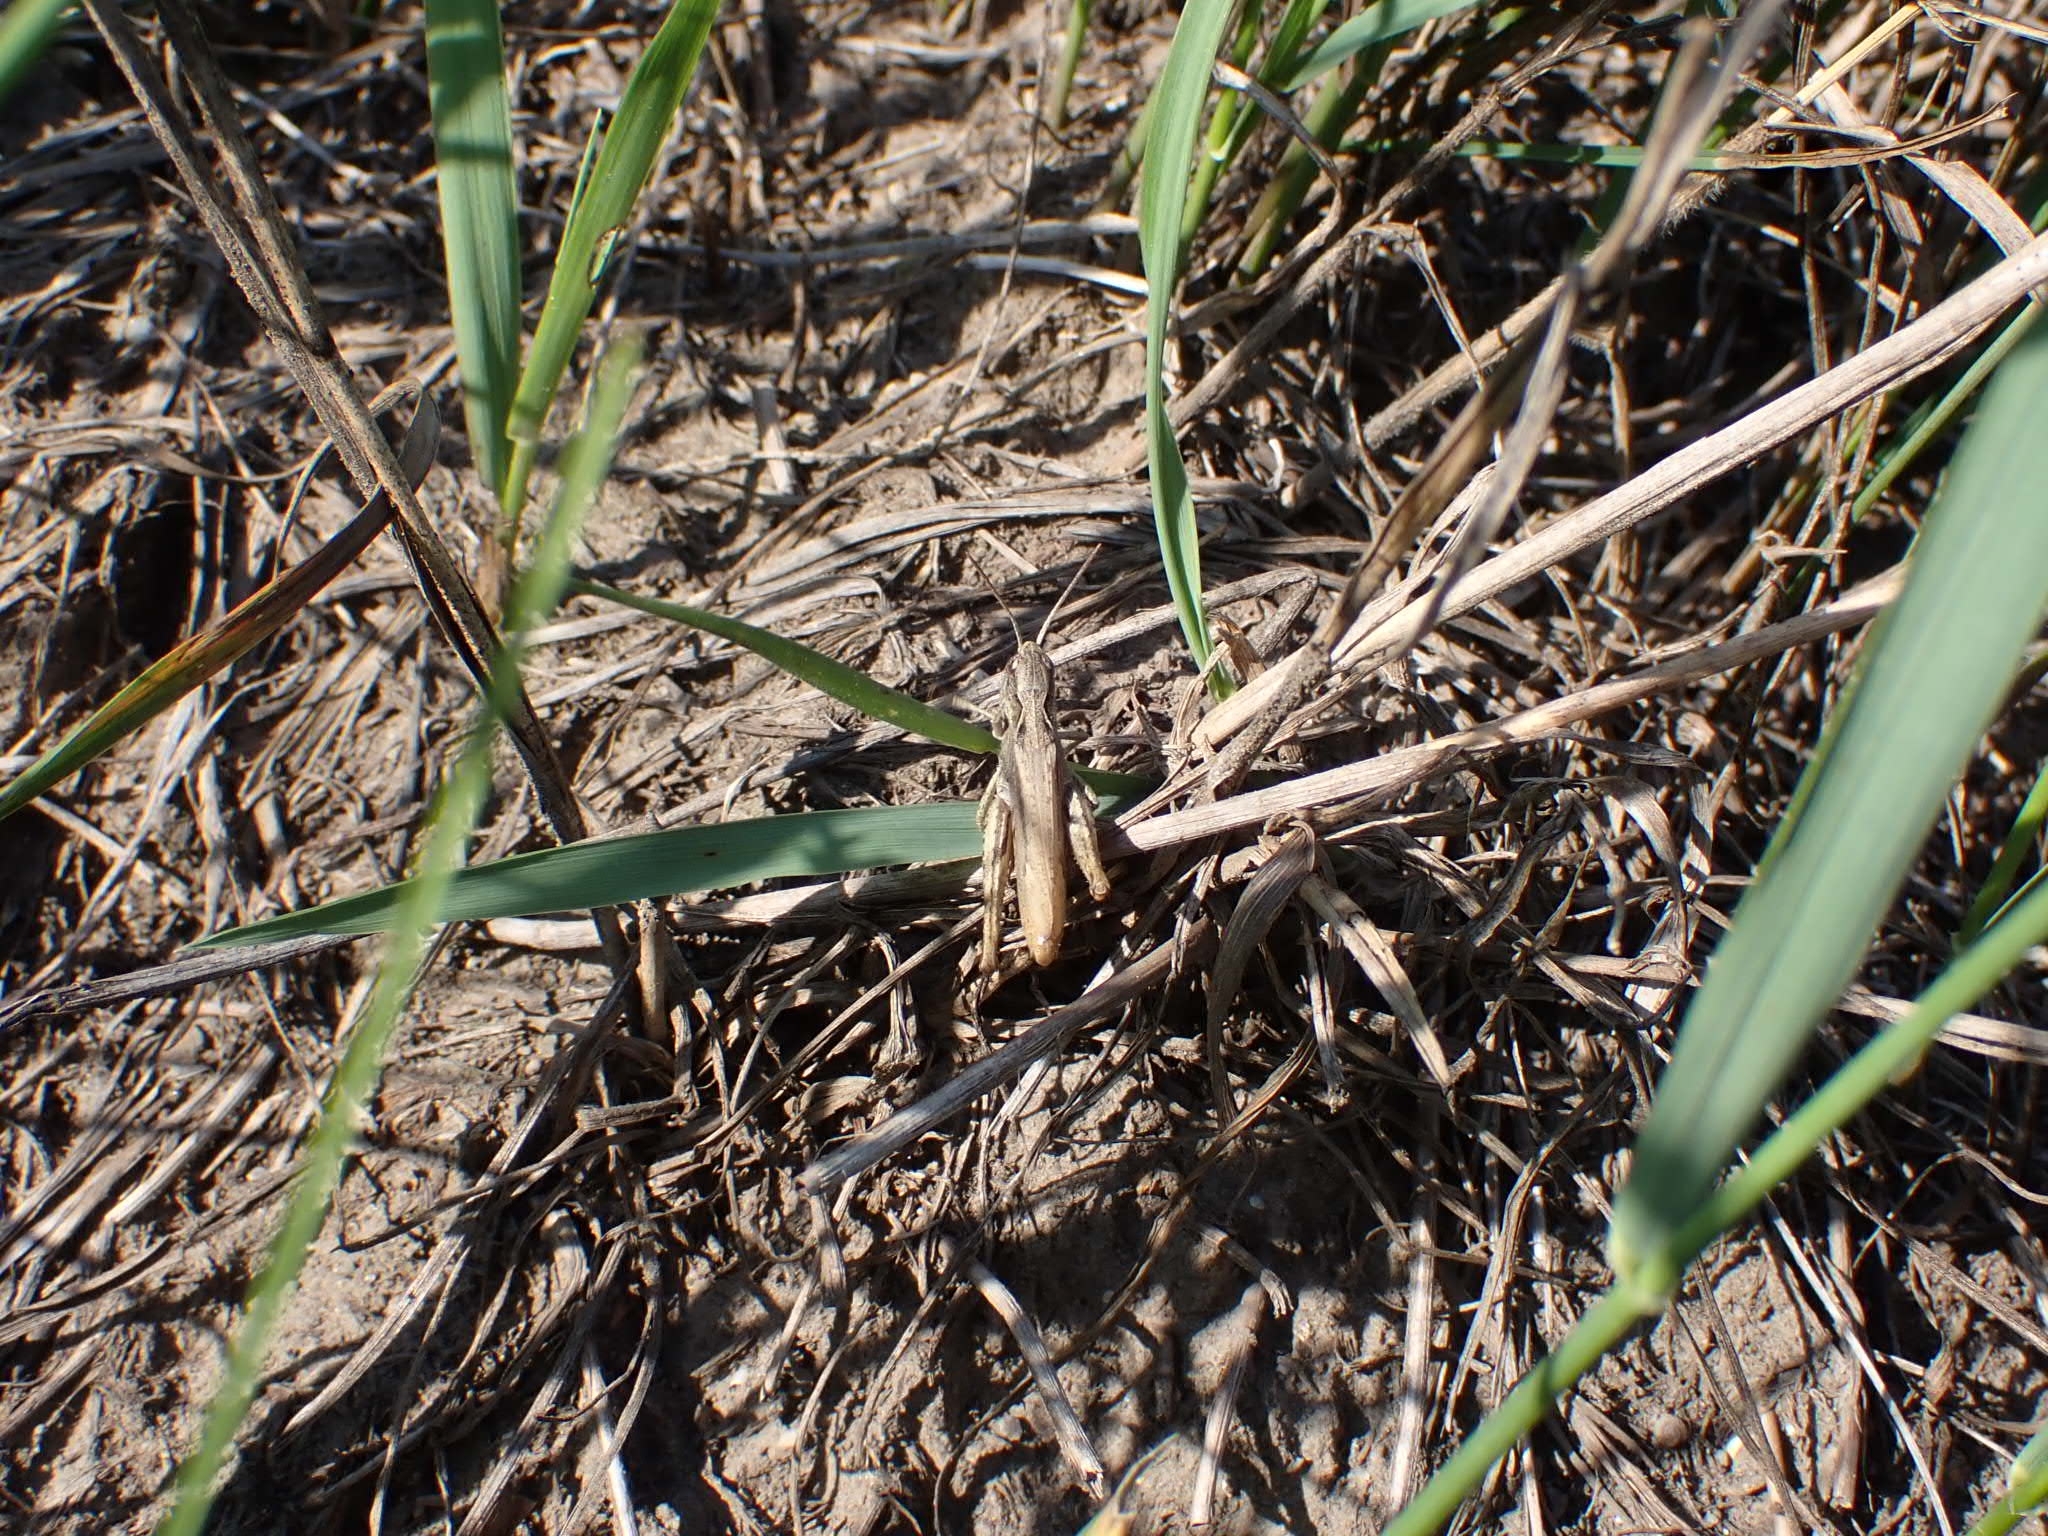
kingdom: Animalia
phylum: Arthropoda
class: Insecta
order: Orthoptera
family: Acrididae
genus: Chorthippus
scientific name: Chorthippus apricarius
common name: Upland field grasshopper
